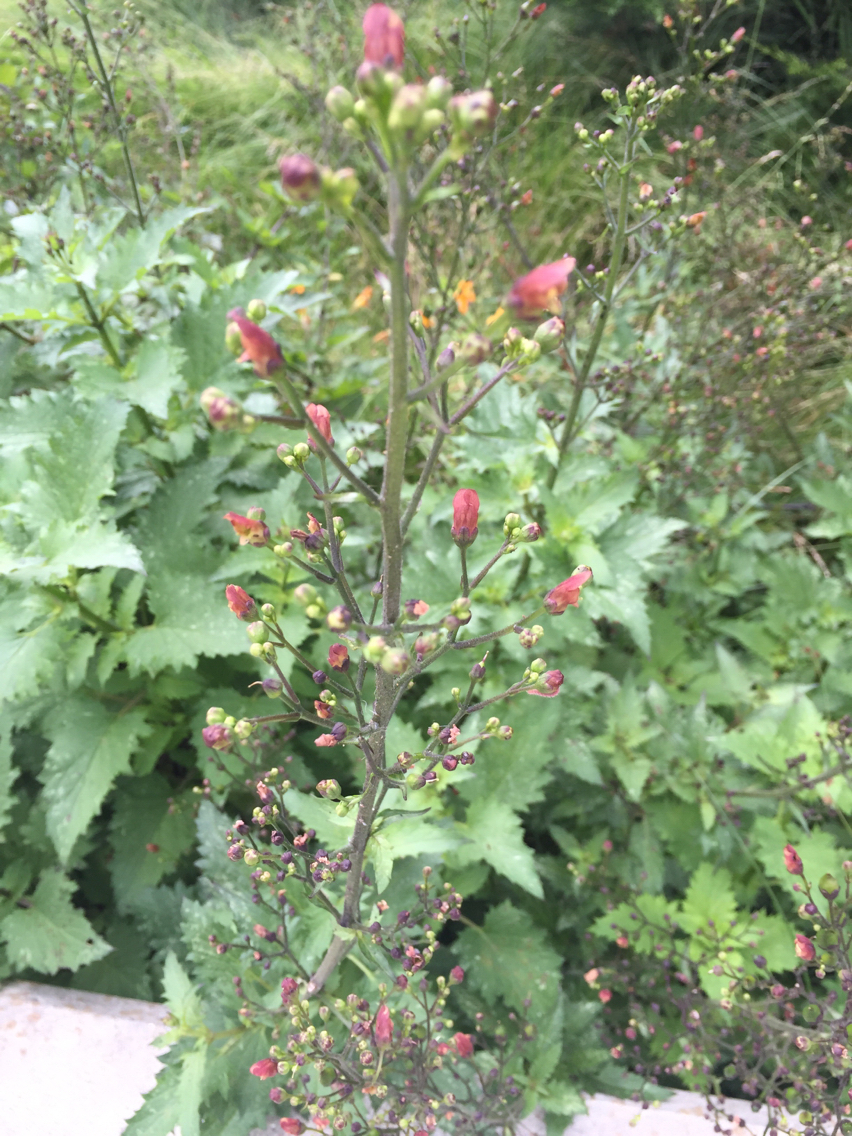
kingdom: Plantae
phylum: Tracheophyta
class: Magnoliopsida
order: Lamiales
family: Scrophulariaceae
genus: Scrophularia
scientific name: Scrophularia californica
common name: California figwort
